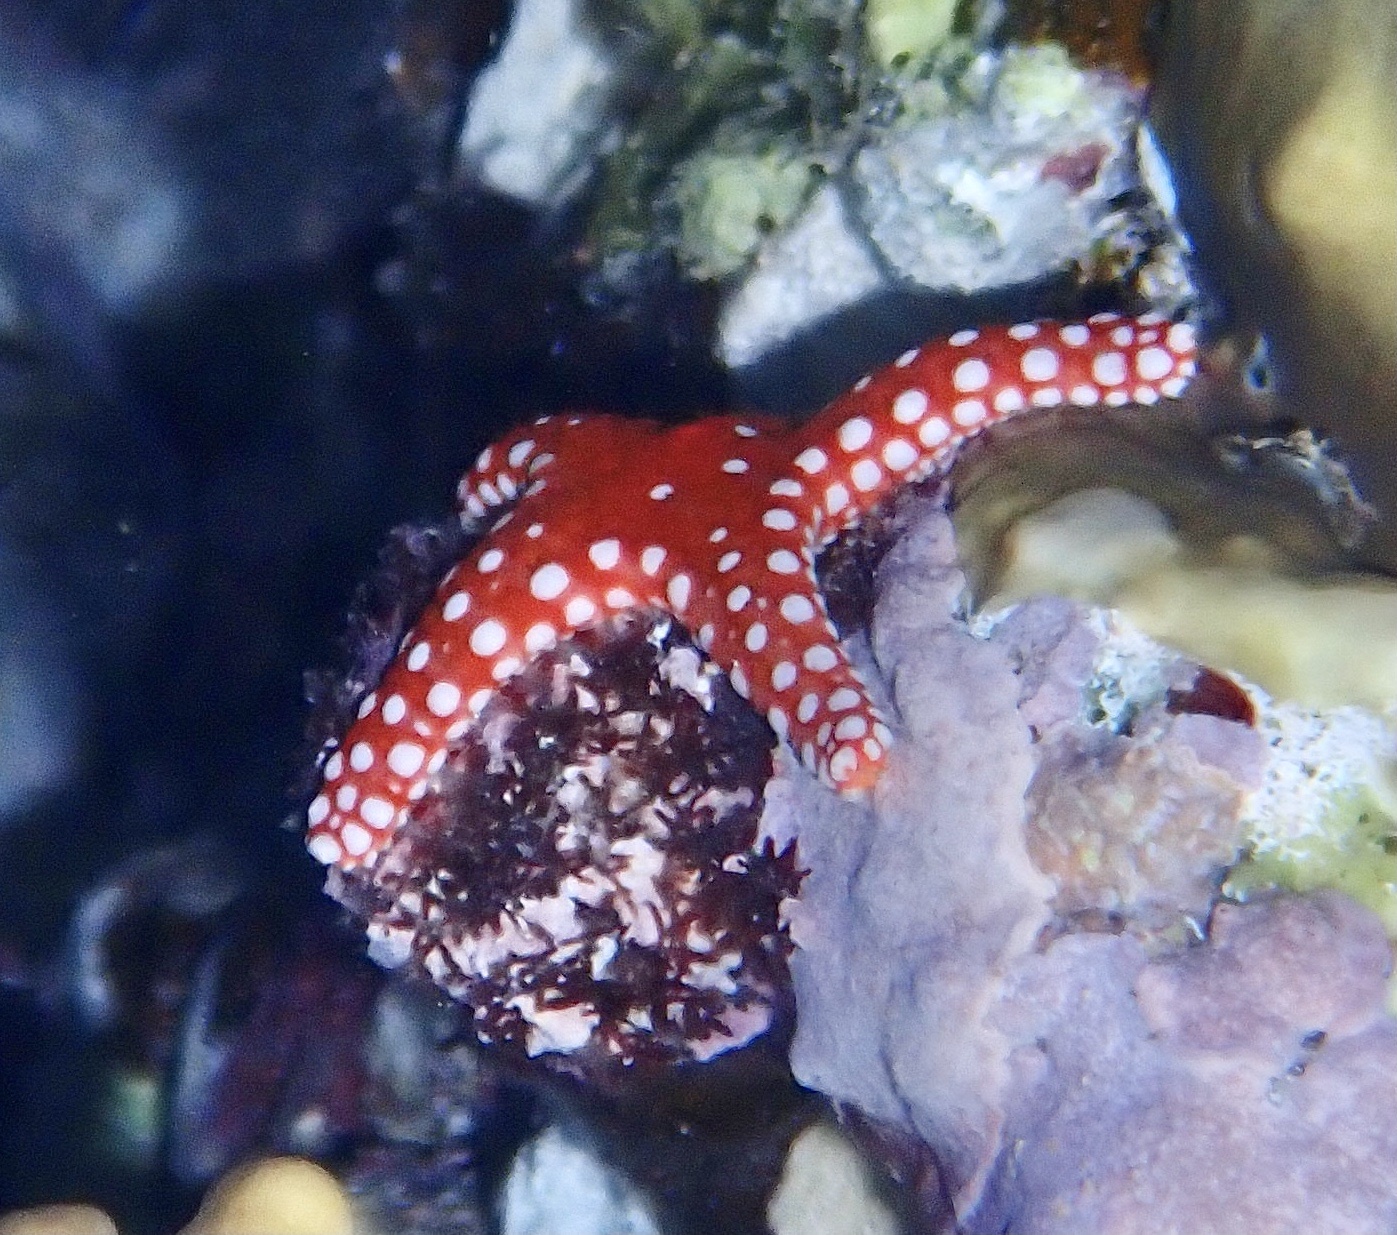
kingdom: Animalia
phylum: Echinodermata
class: Asteroidea
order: Valvatida
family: Goniasteridae
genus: Fromia
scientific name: Fromia ghardaqana
